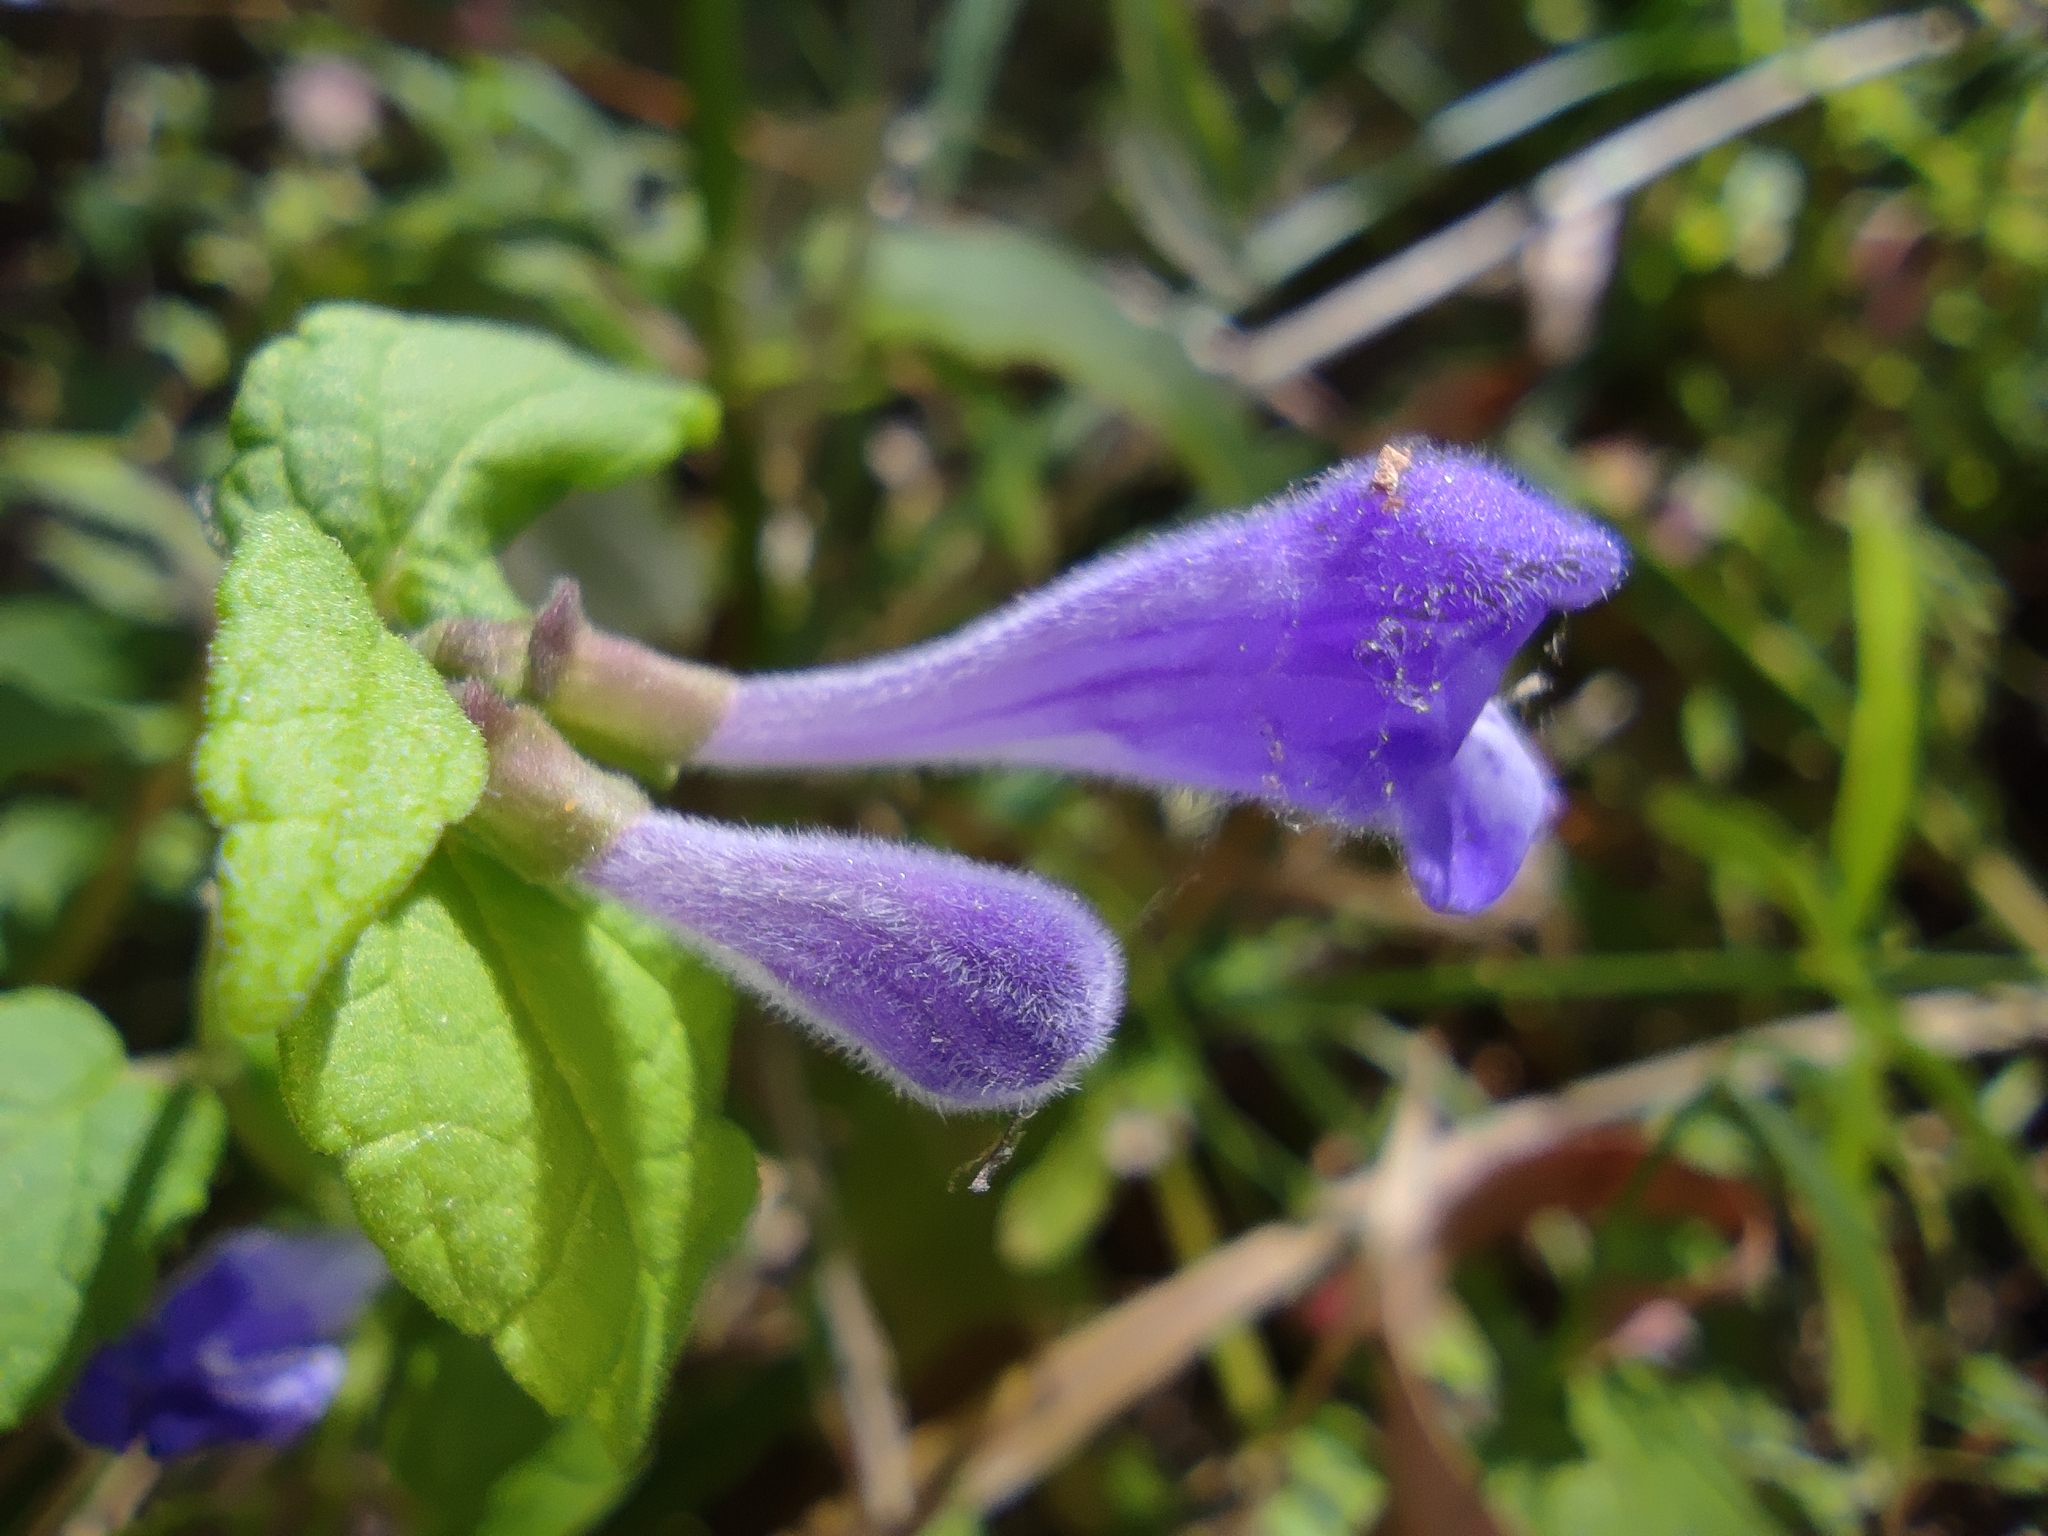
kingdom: Plantae
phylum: Tracheophyta
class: Magnoliopsida
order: Lamiales
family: Lamiaceae
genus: Scutellaria
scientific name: Scutellaria galericulata
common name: Skullcap
